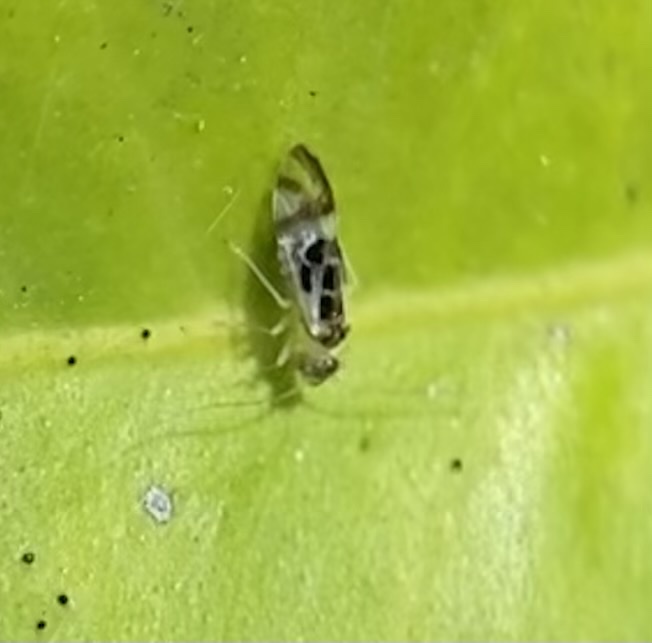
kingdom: Animalia
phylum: Arthropoda
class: Insecta
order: Psocodea
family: Stenopsocidae
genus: Graphopsocus
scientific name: Graphopsocus cruciatus
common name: Lizard bark louse
